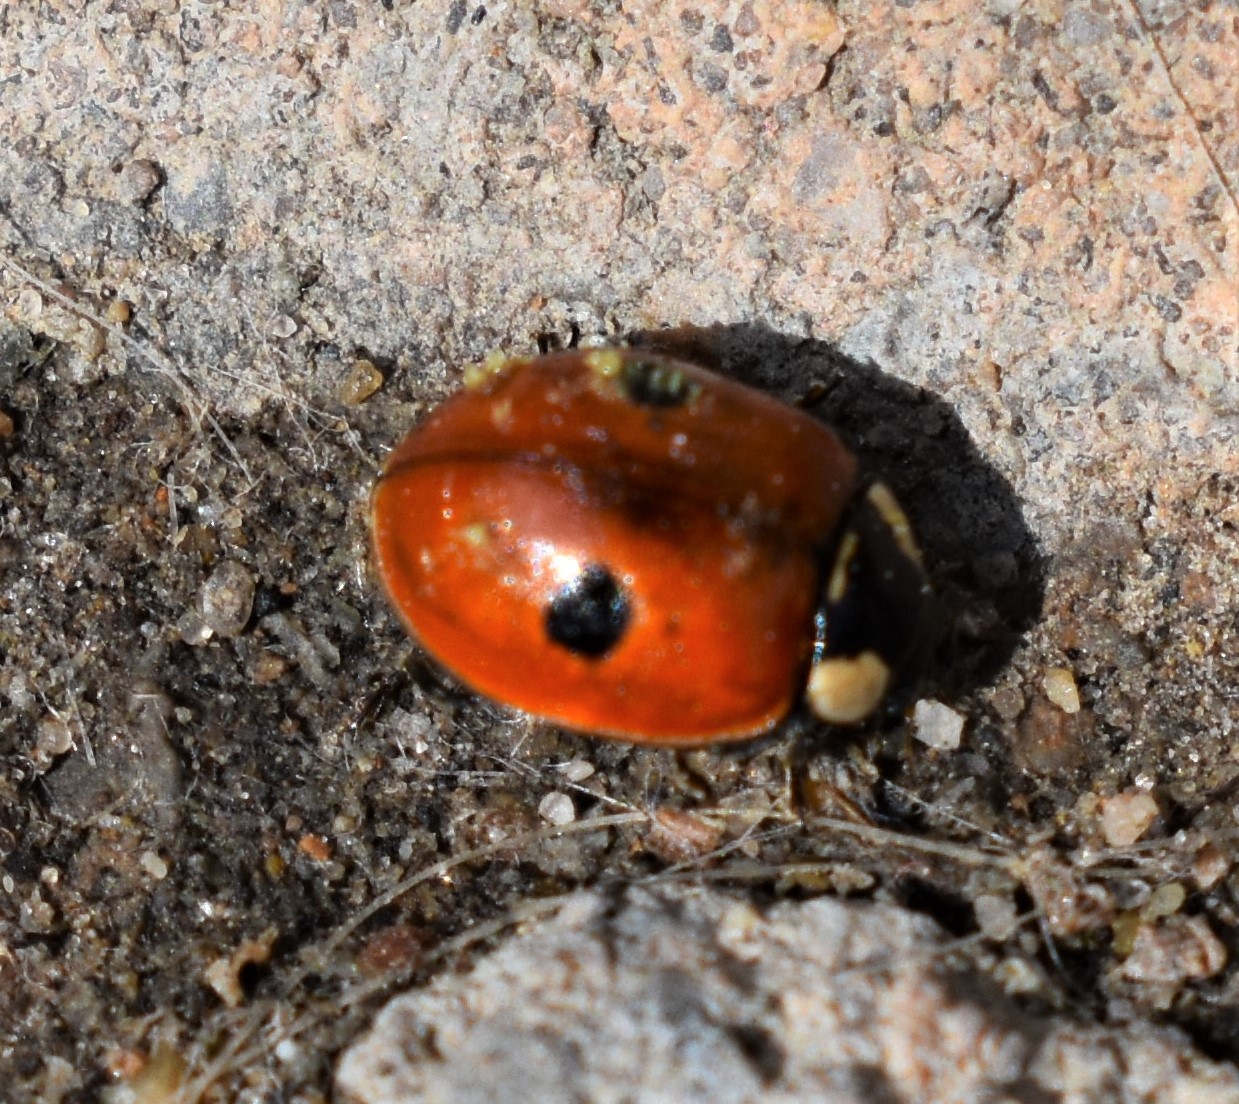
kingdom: Animalia
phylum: Arthropoda
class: Insecta
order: Coleoptera
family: Coccinellidae
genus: Adalia
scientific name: Adalia bipunctata
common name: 2-spot ladybird
